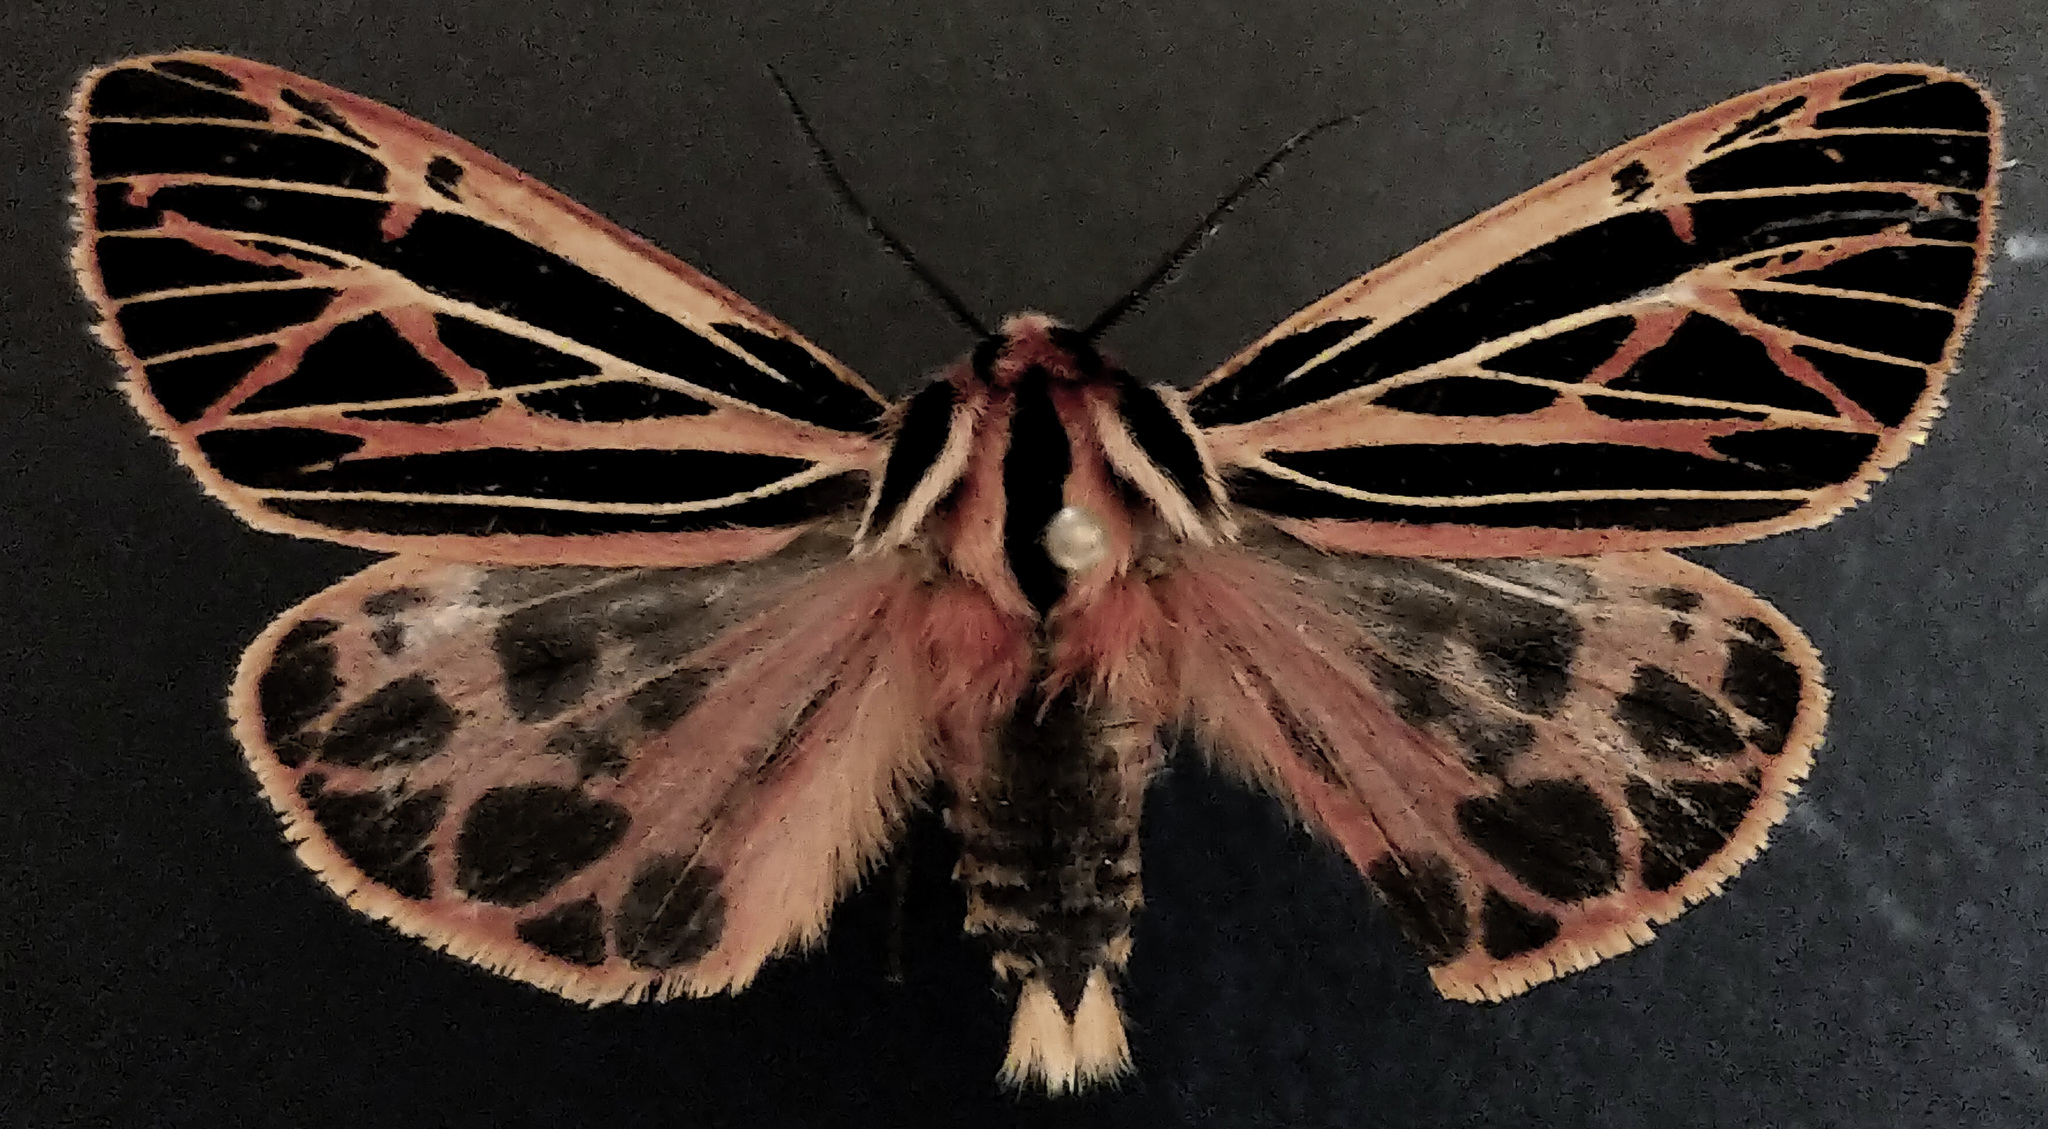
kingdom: Animalia
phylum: Arthropoda
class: Insecta
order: Lepidoptera
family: Erebidae
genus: Apantesis
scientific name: Apantesis
